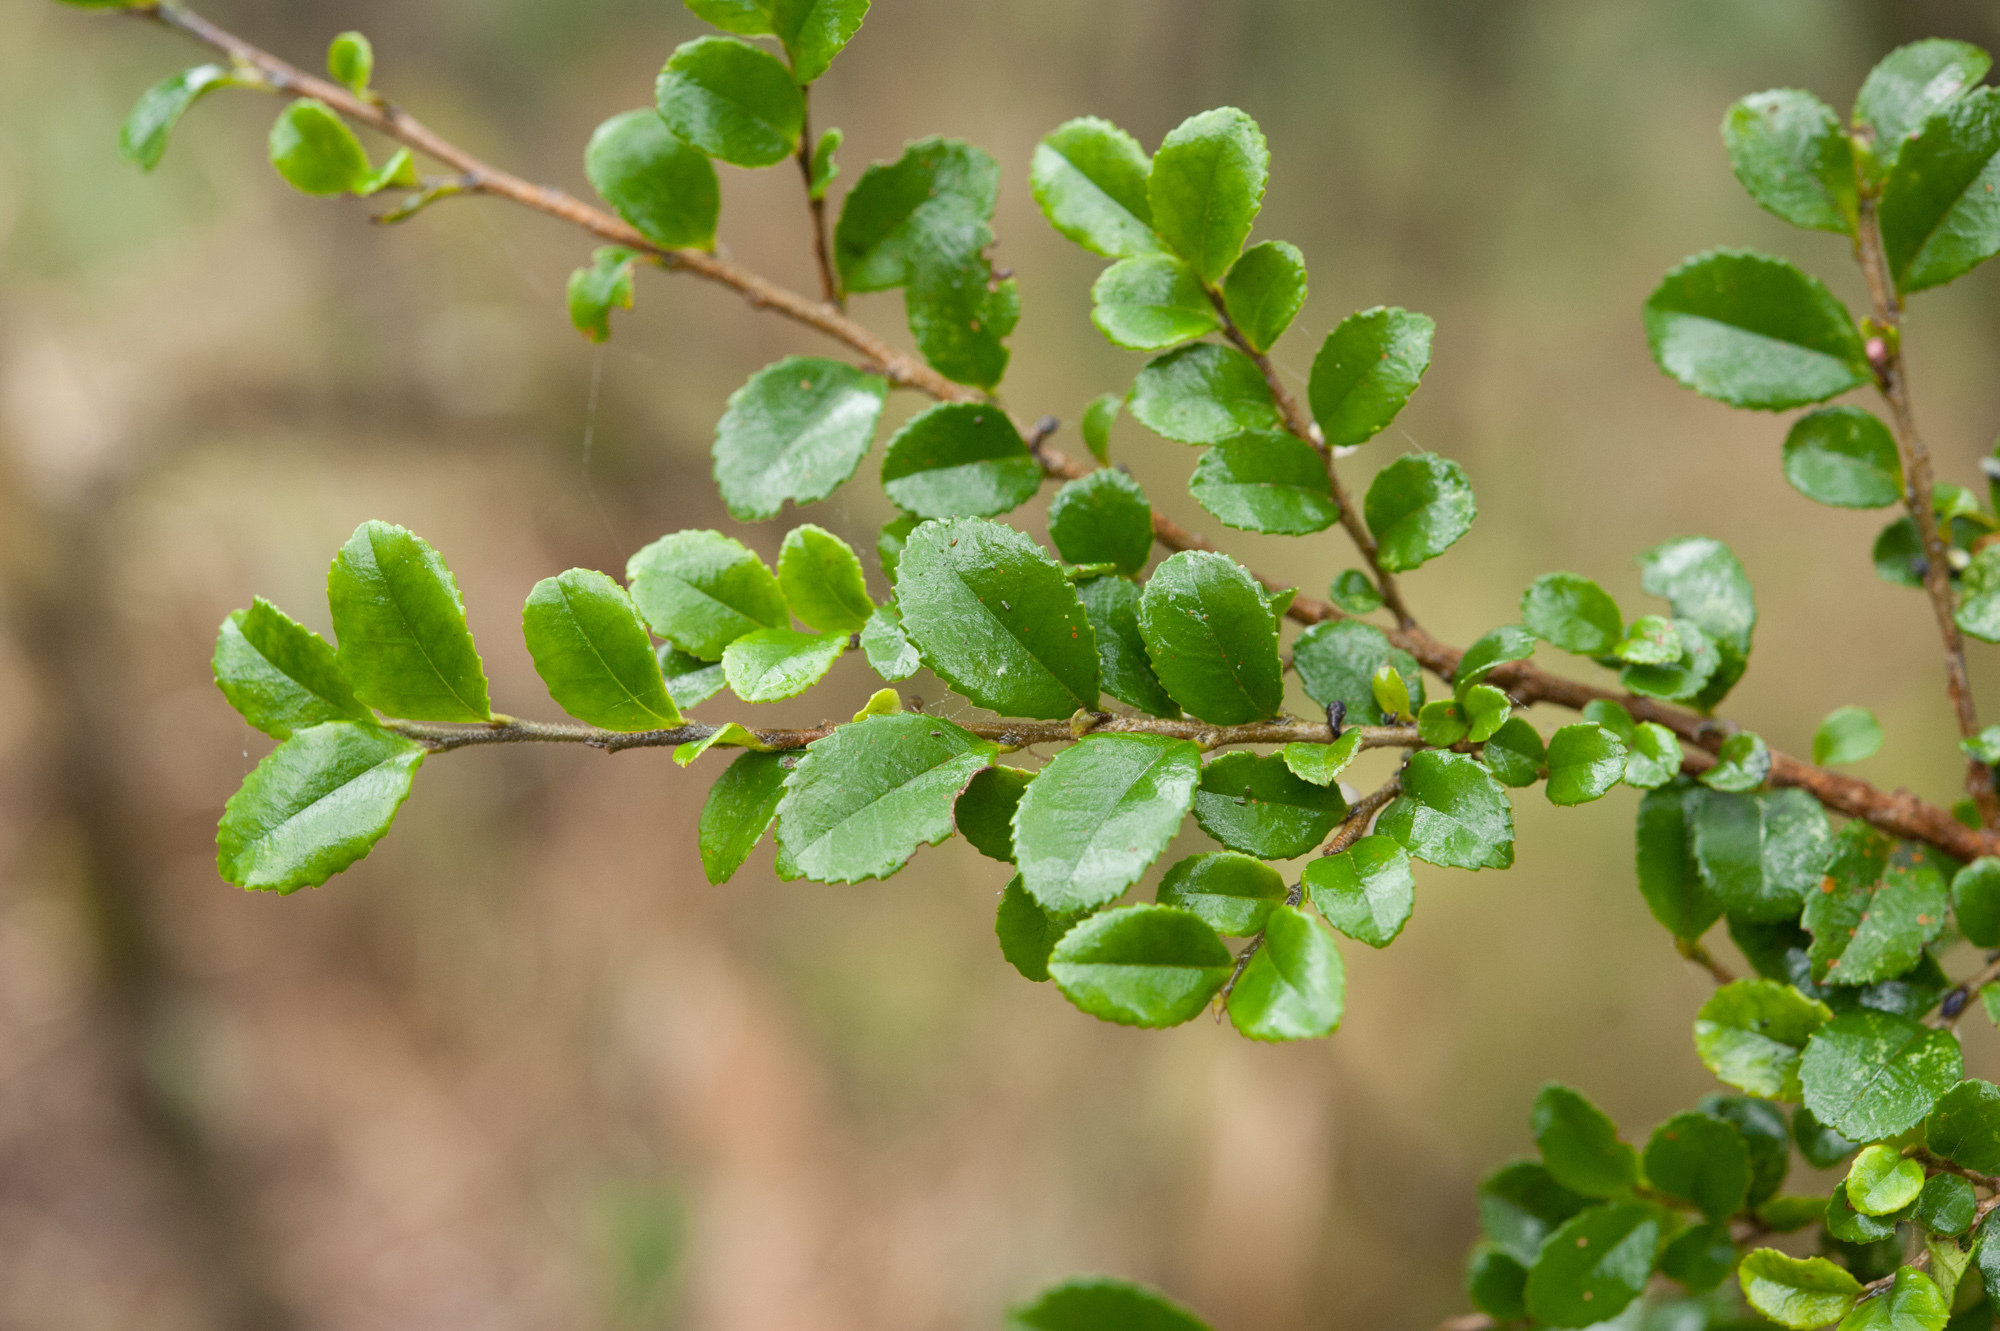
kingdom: Plantae
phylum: Tracheophyta
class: Magnoliopsida
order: Ericales
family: Pentaphylacaceae
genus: Eurya
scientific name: Eurya crenatifolia
